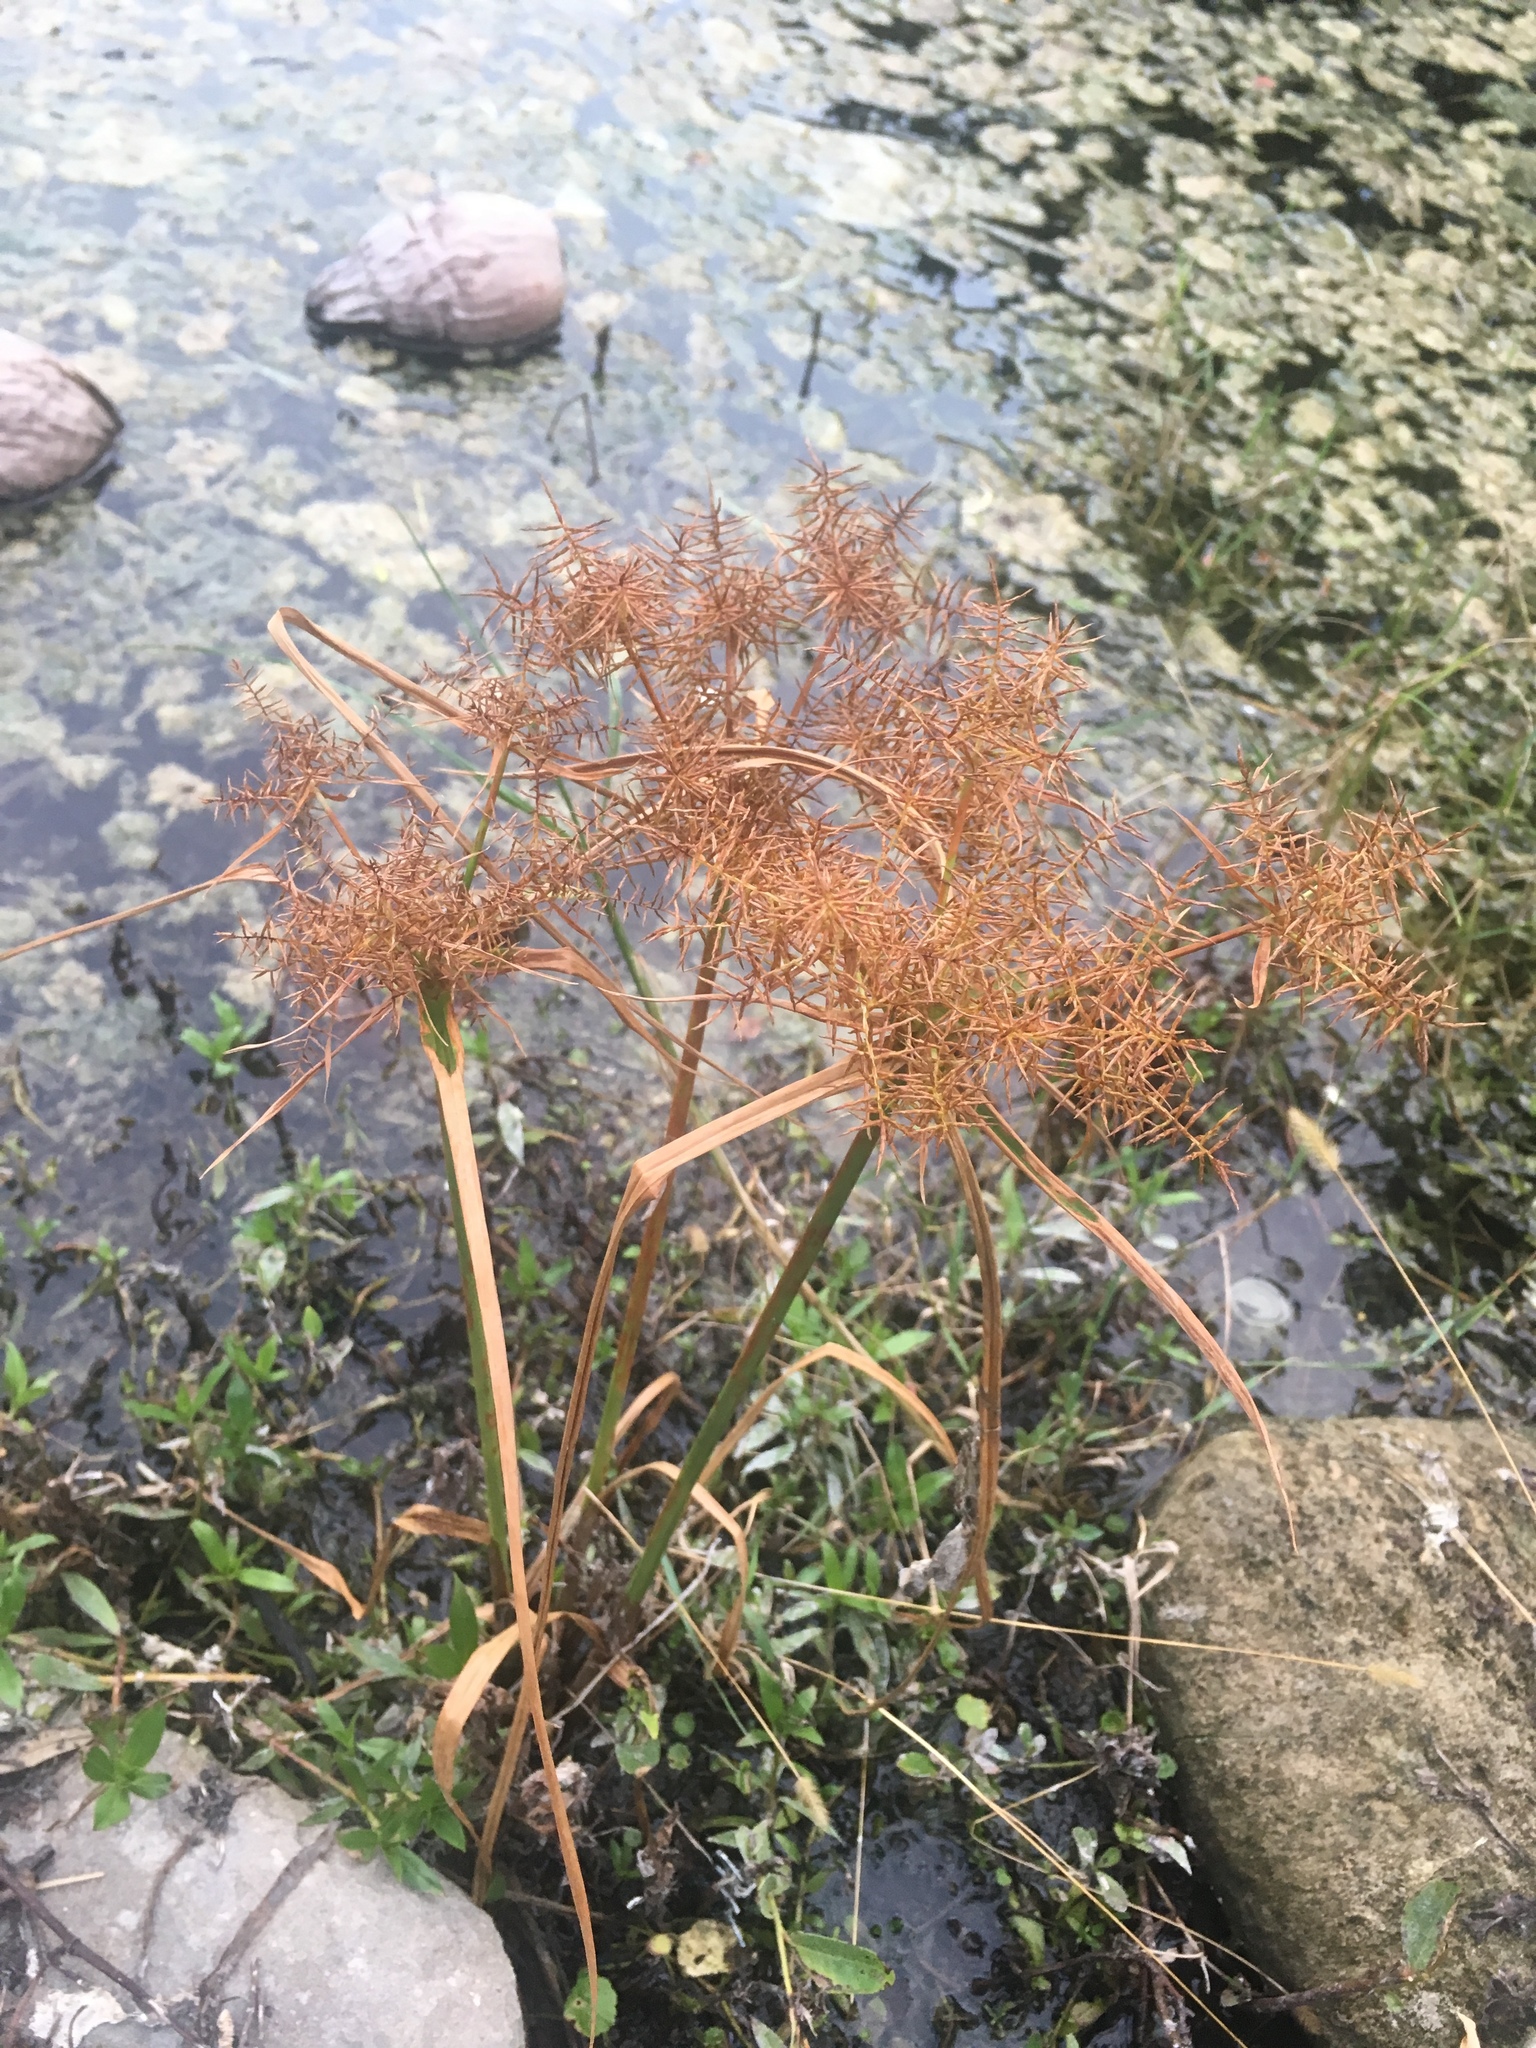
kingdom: Plantae
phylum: Tracheophyta
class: Liliopsida
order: Poales
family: Cyperaceae
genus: Cyperus
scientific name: Cyperus odoratus
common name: Fragrant flatsedge
